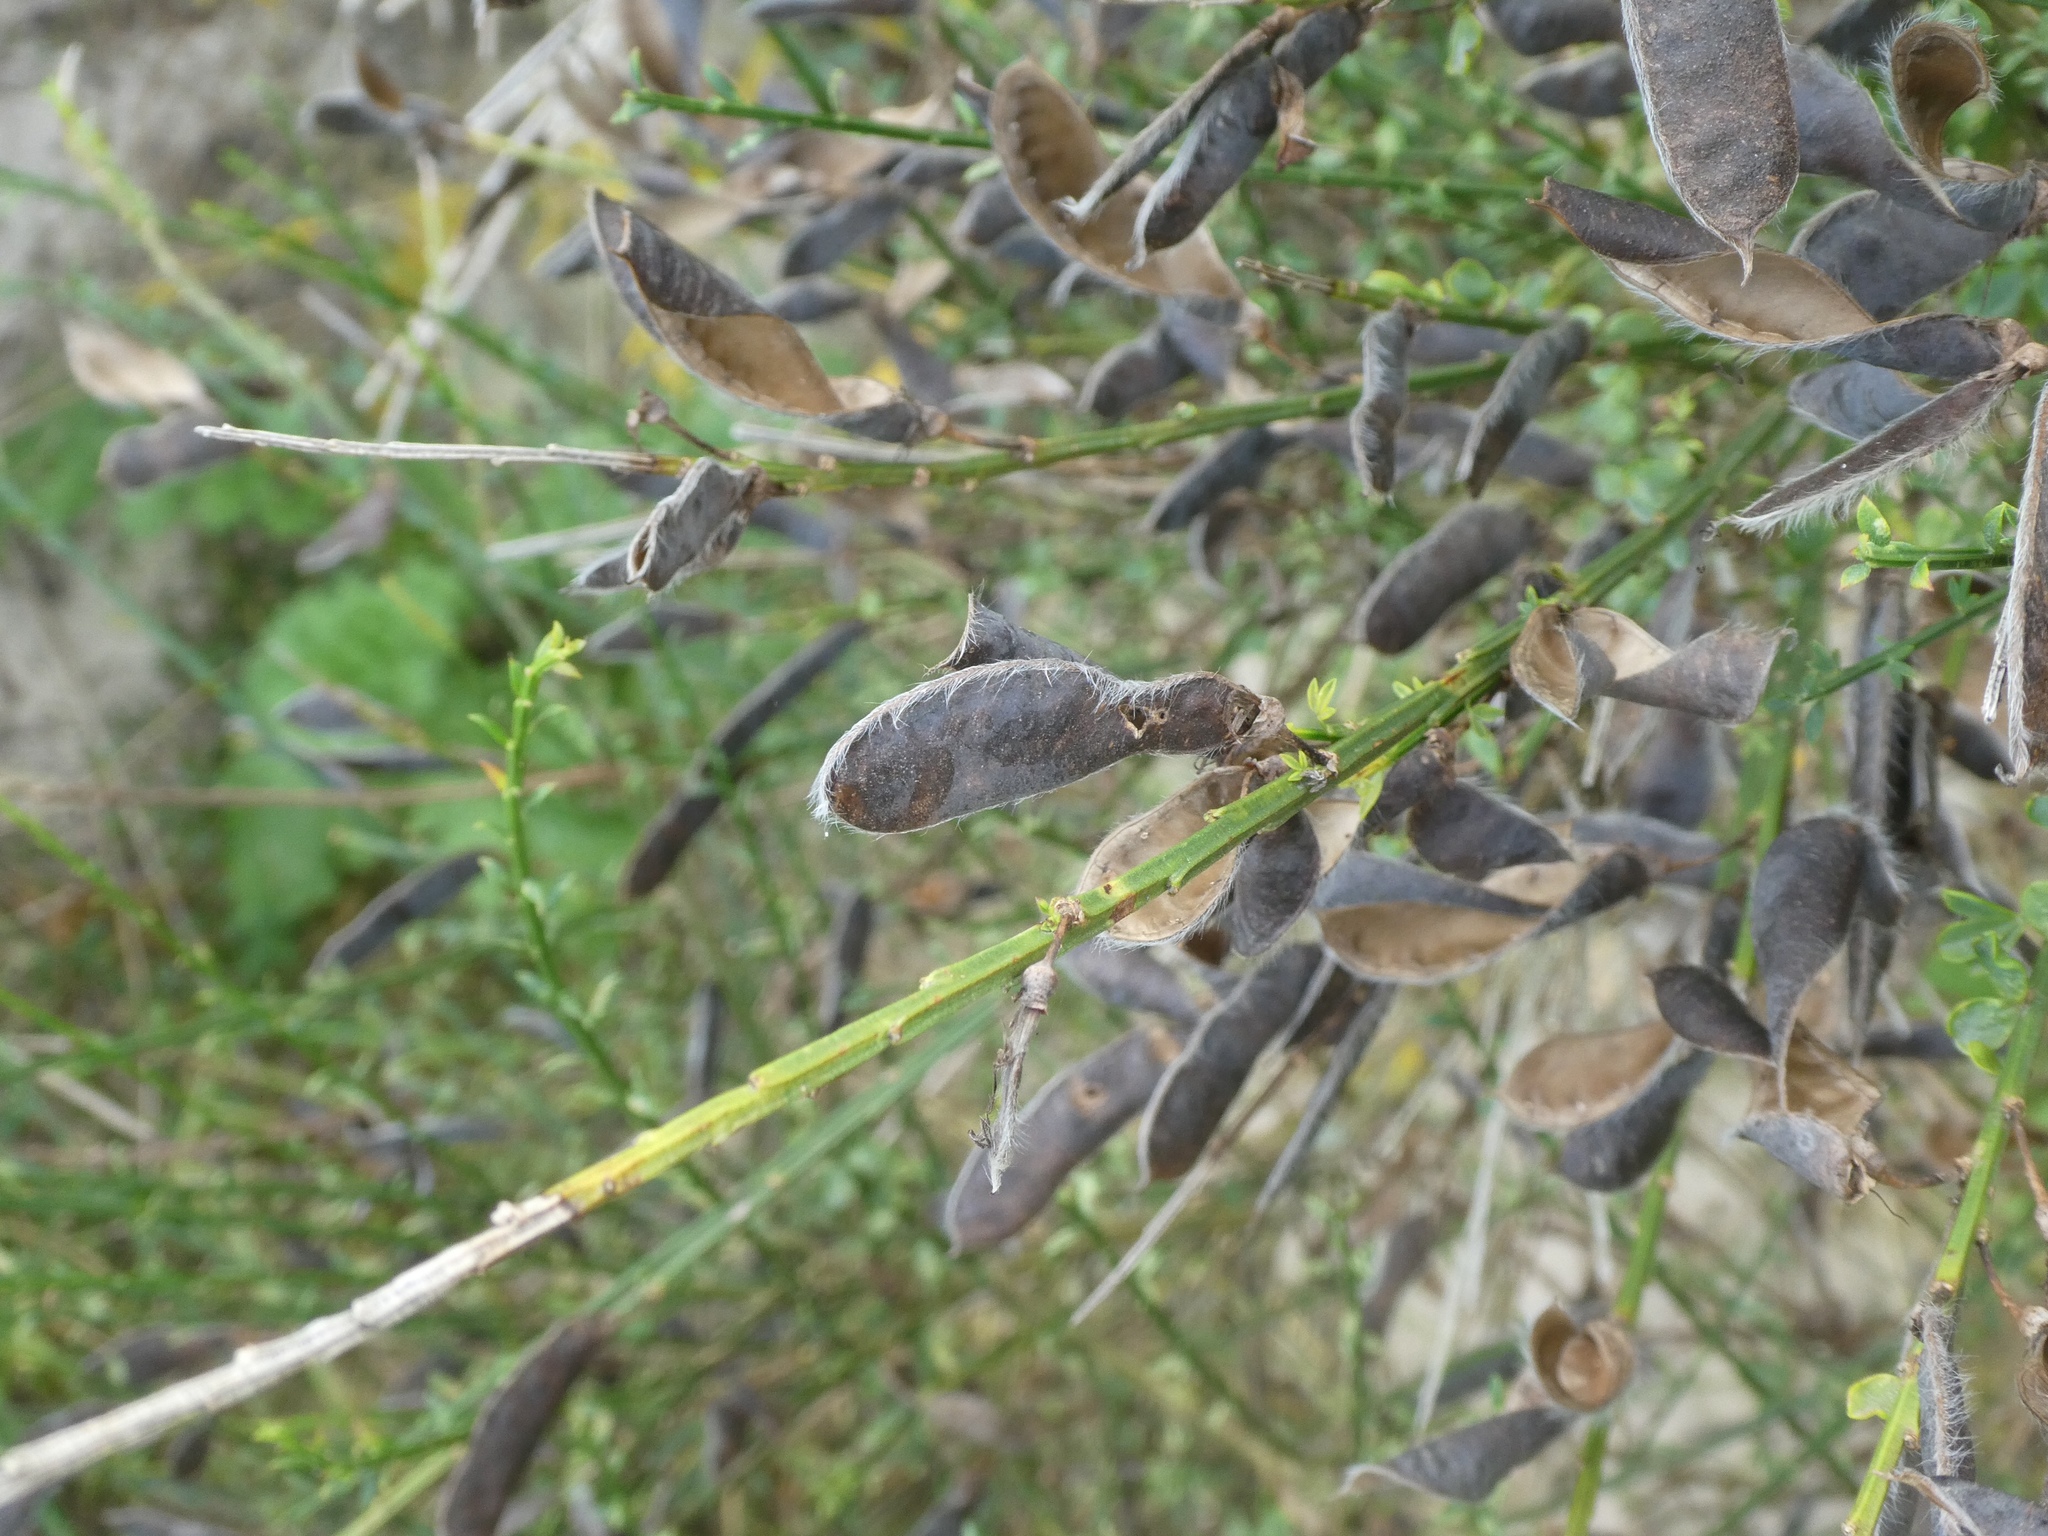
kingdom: Plantae
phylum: Tracheophyta
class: Magnoliopsida
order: Fabales
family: Fabaceae
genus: Cytisus
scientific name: Cytisus scoparius
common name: Scotch broom
